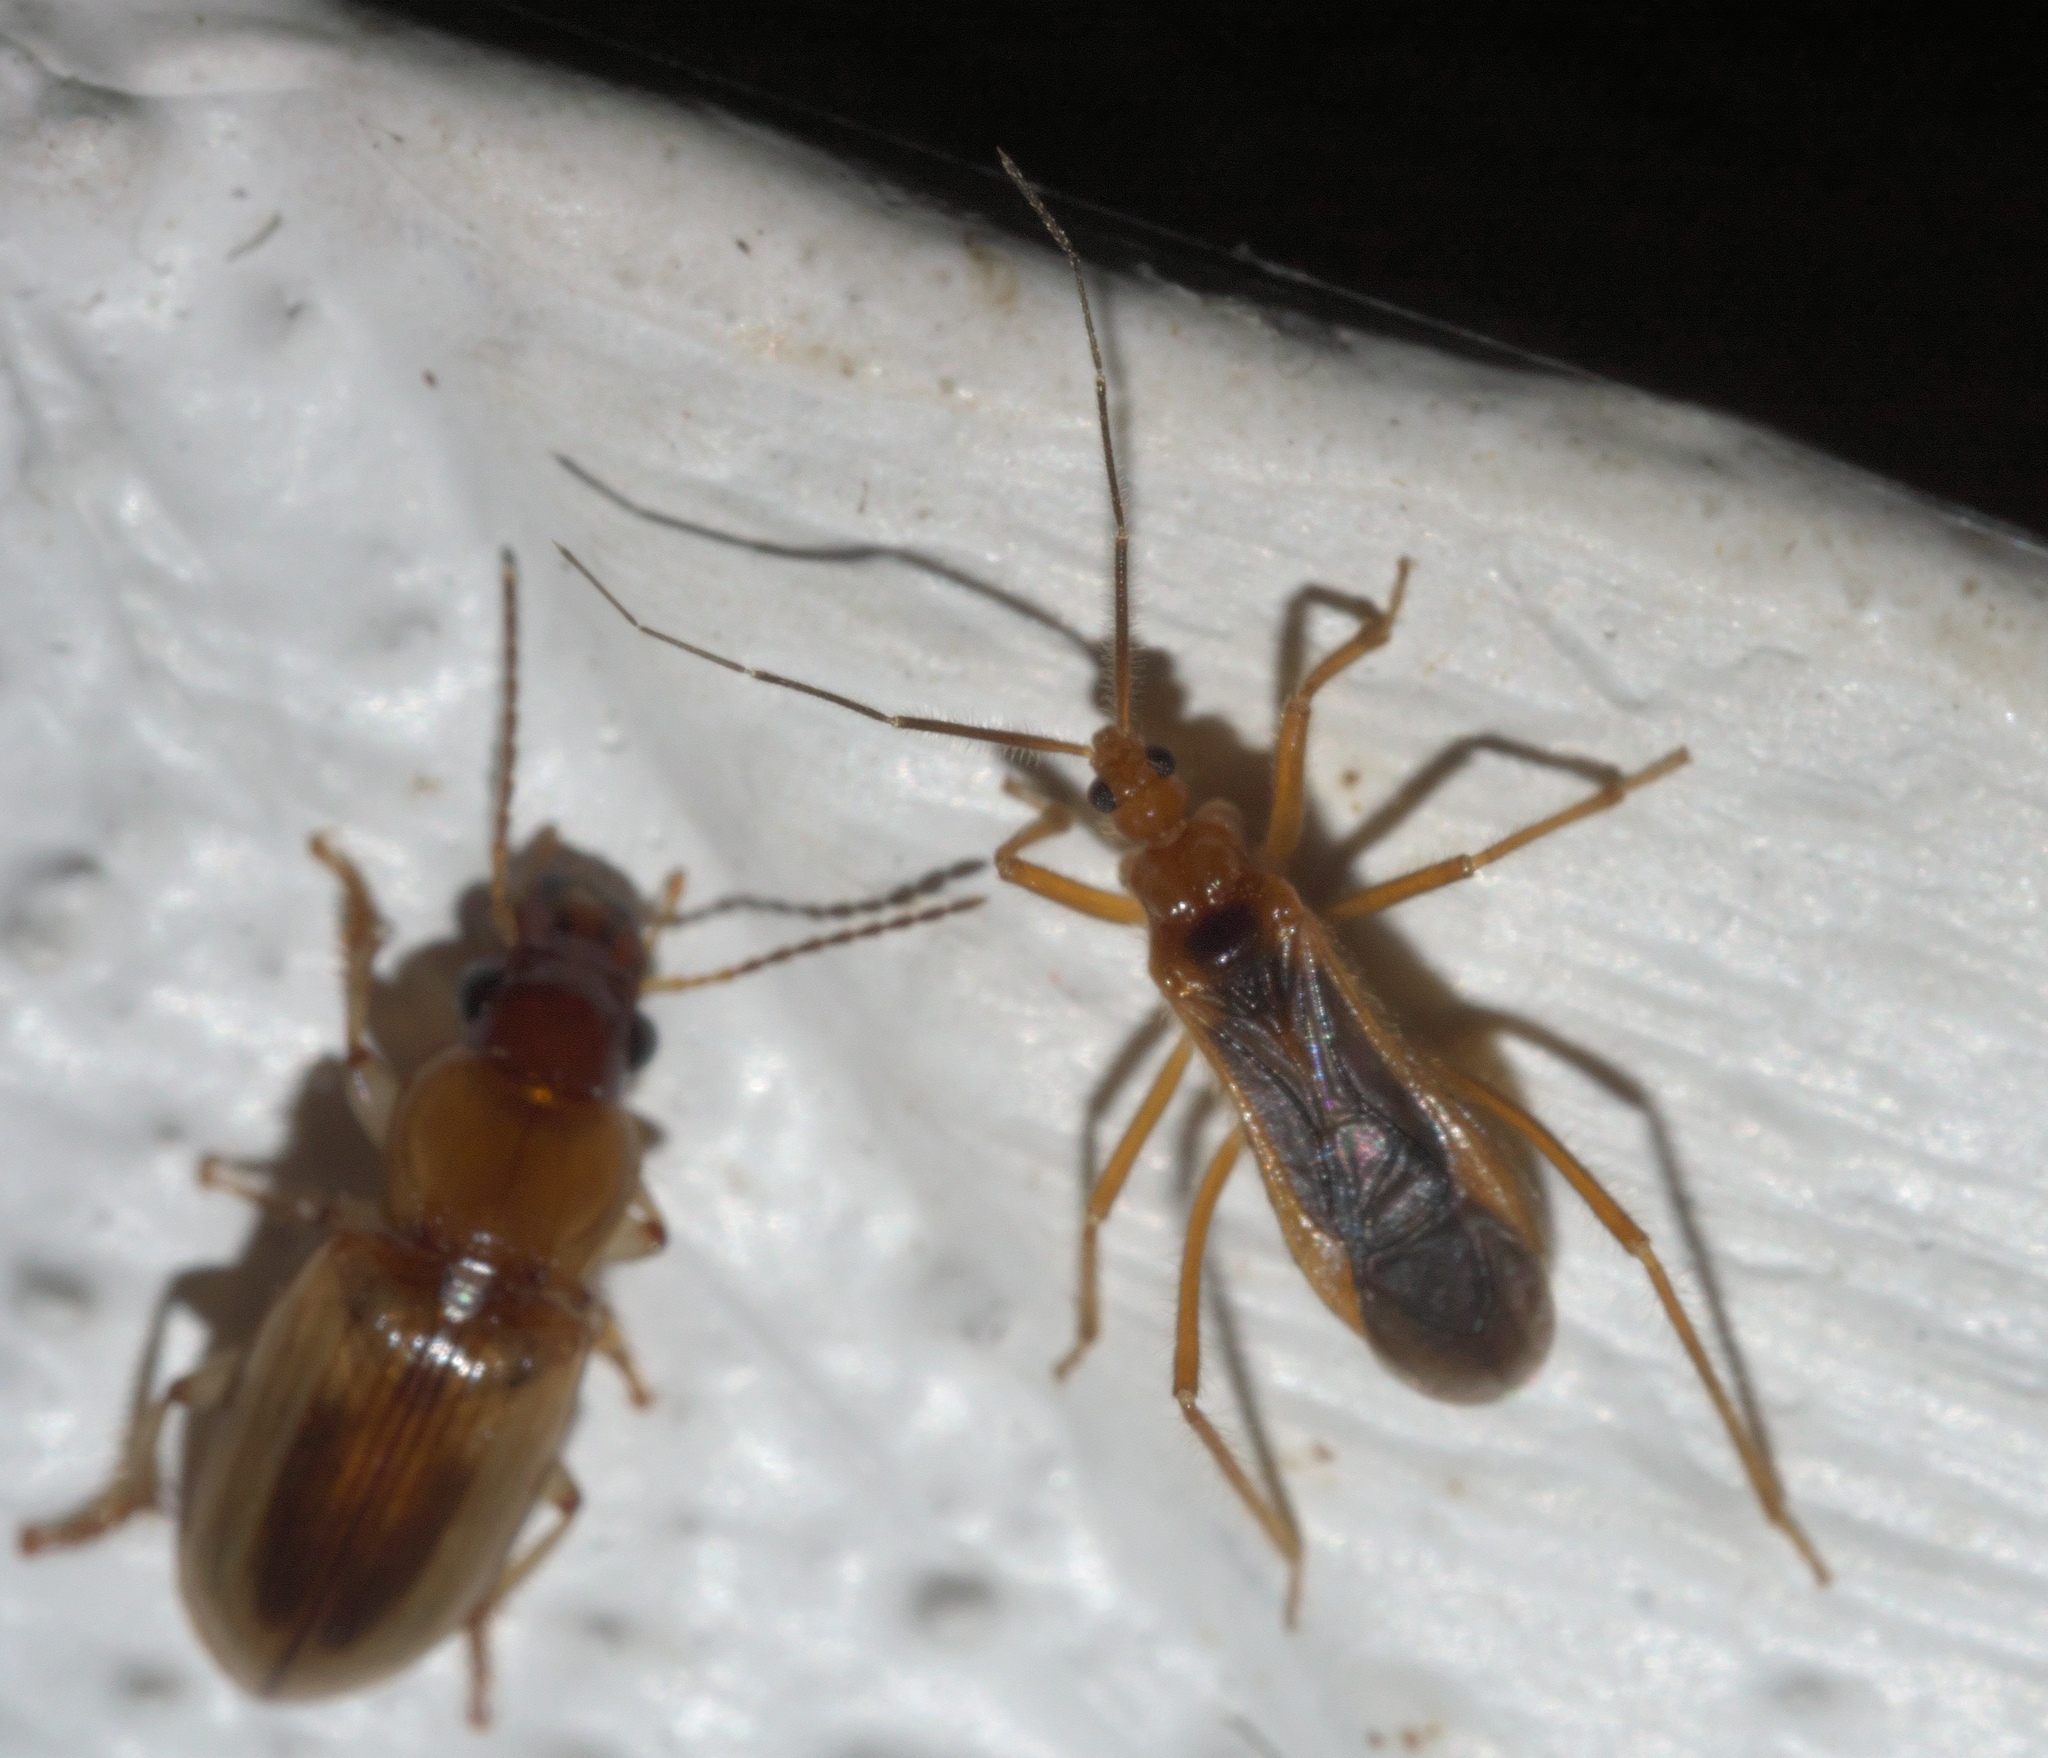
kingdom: Animalia
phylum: Arthropoda
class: Insecta
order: Hemiptera
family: Reduviidae
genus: Oncerotrachelus
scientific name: Oncerotrachelus acuminatus
